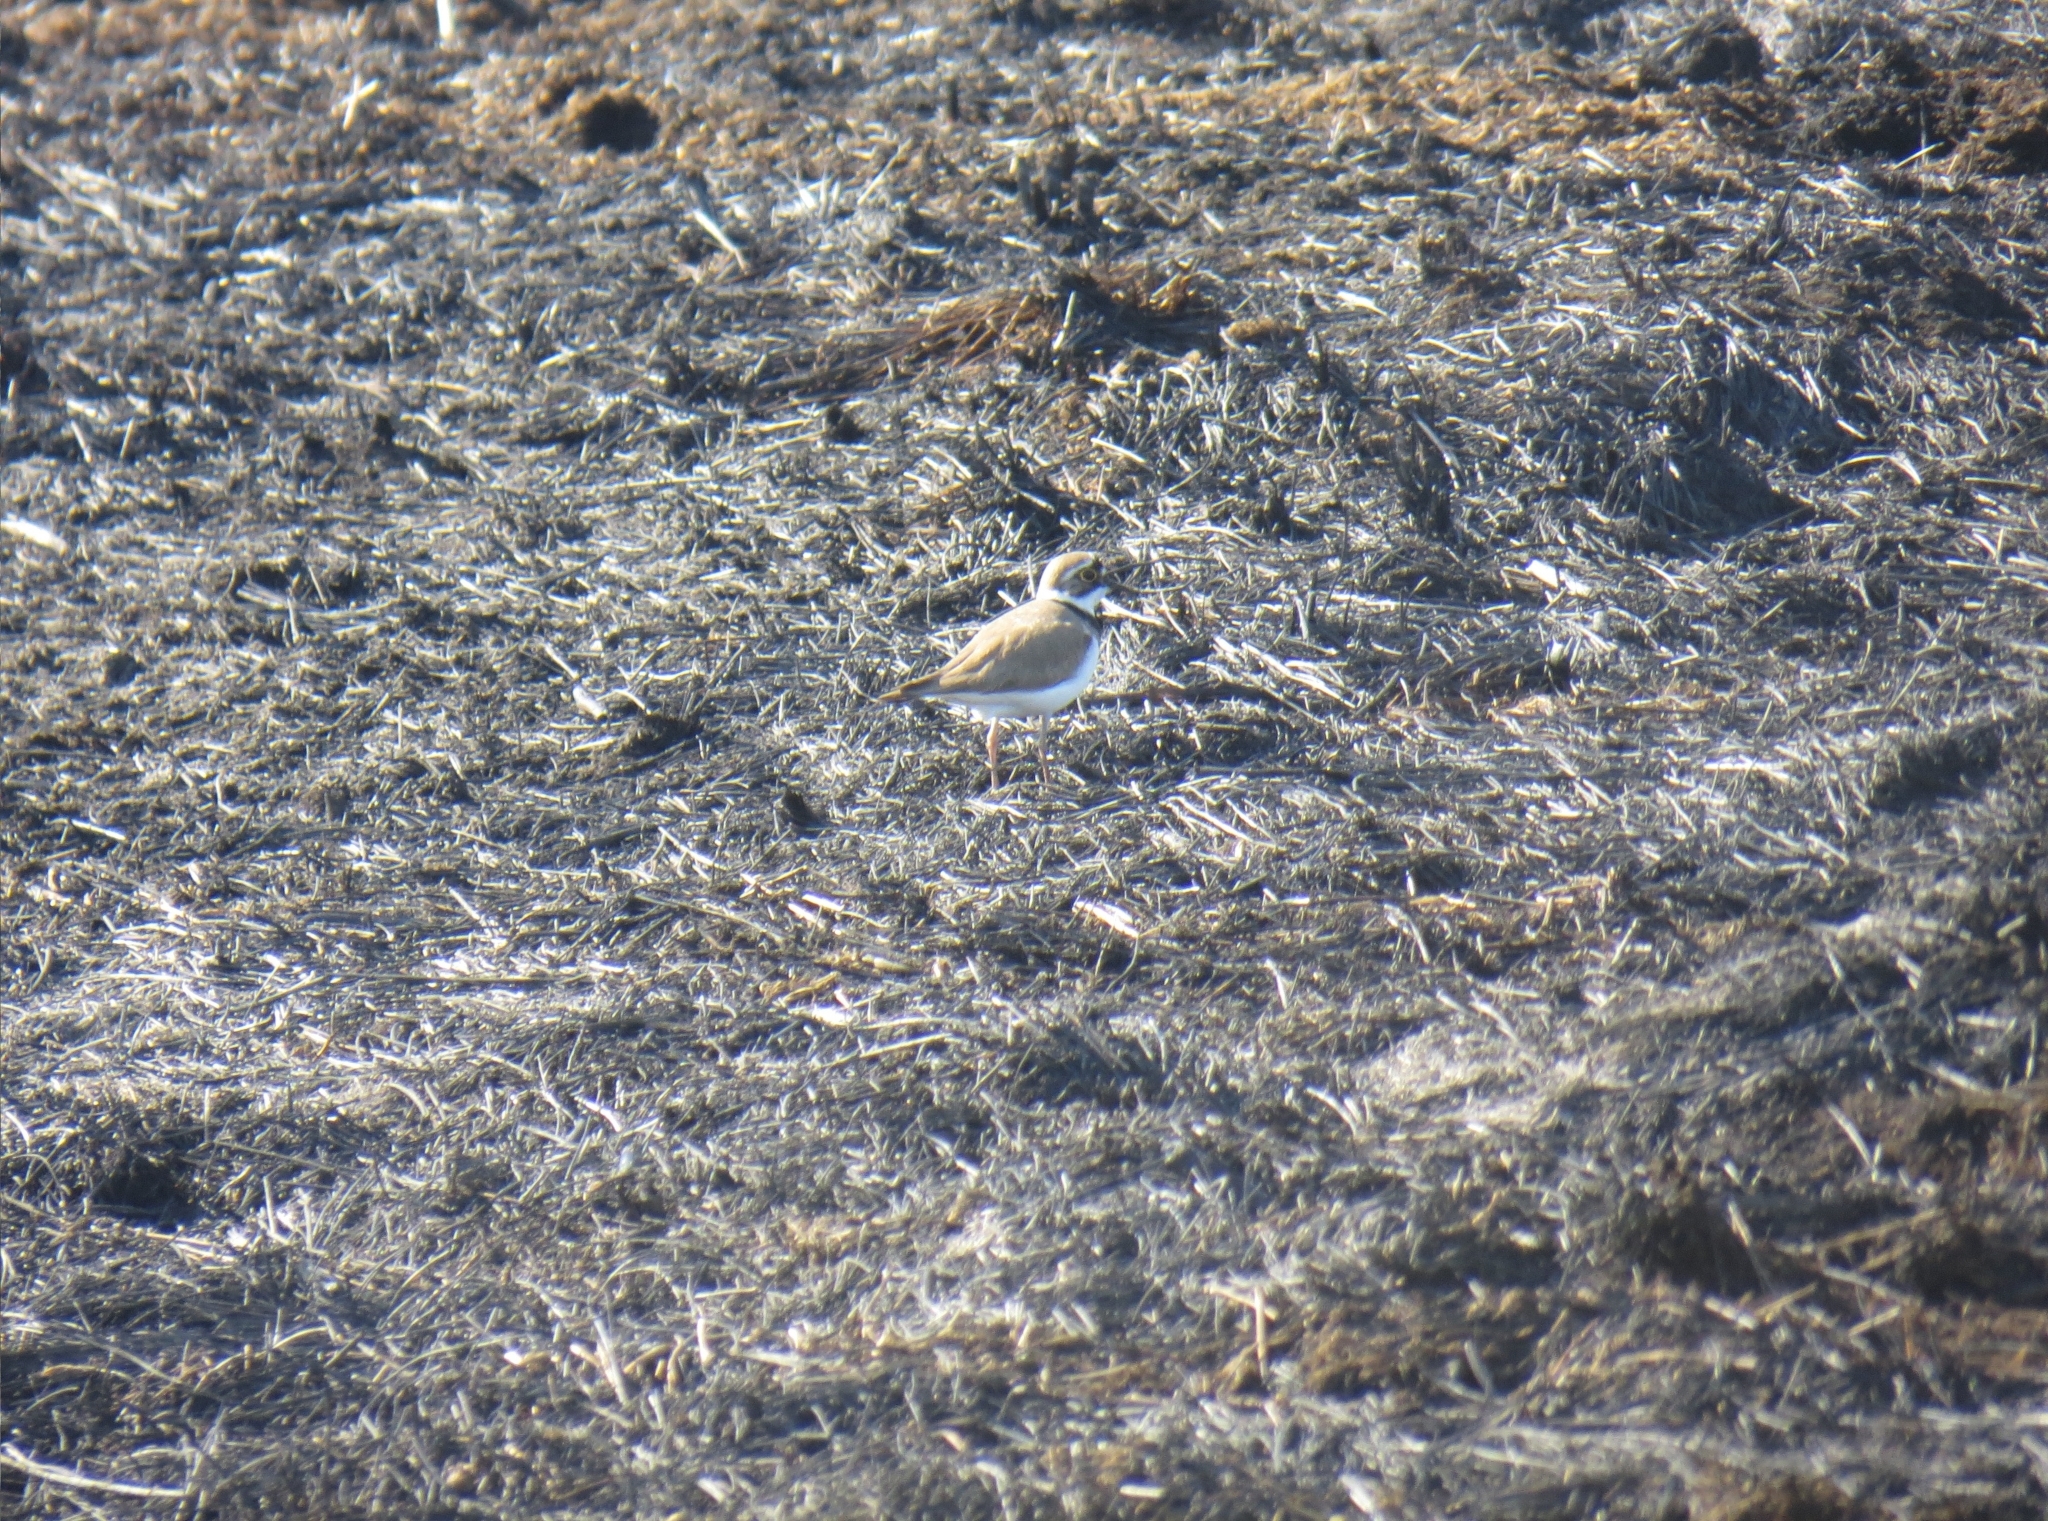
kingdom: Animalia
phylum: Chordata
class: Aves
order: Charadriiformes
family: Charadriidae
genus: Charadrius
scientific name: Charadrius dubius
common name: Little ringed plover
